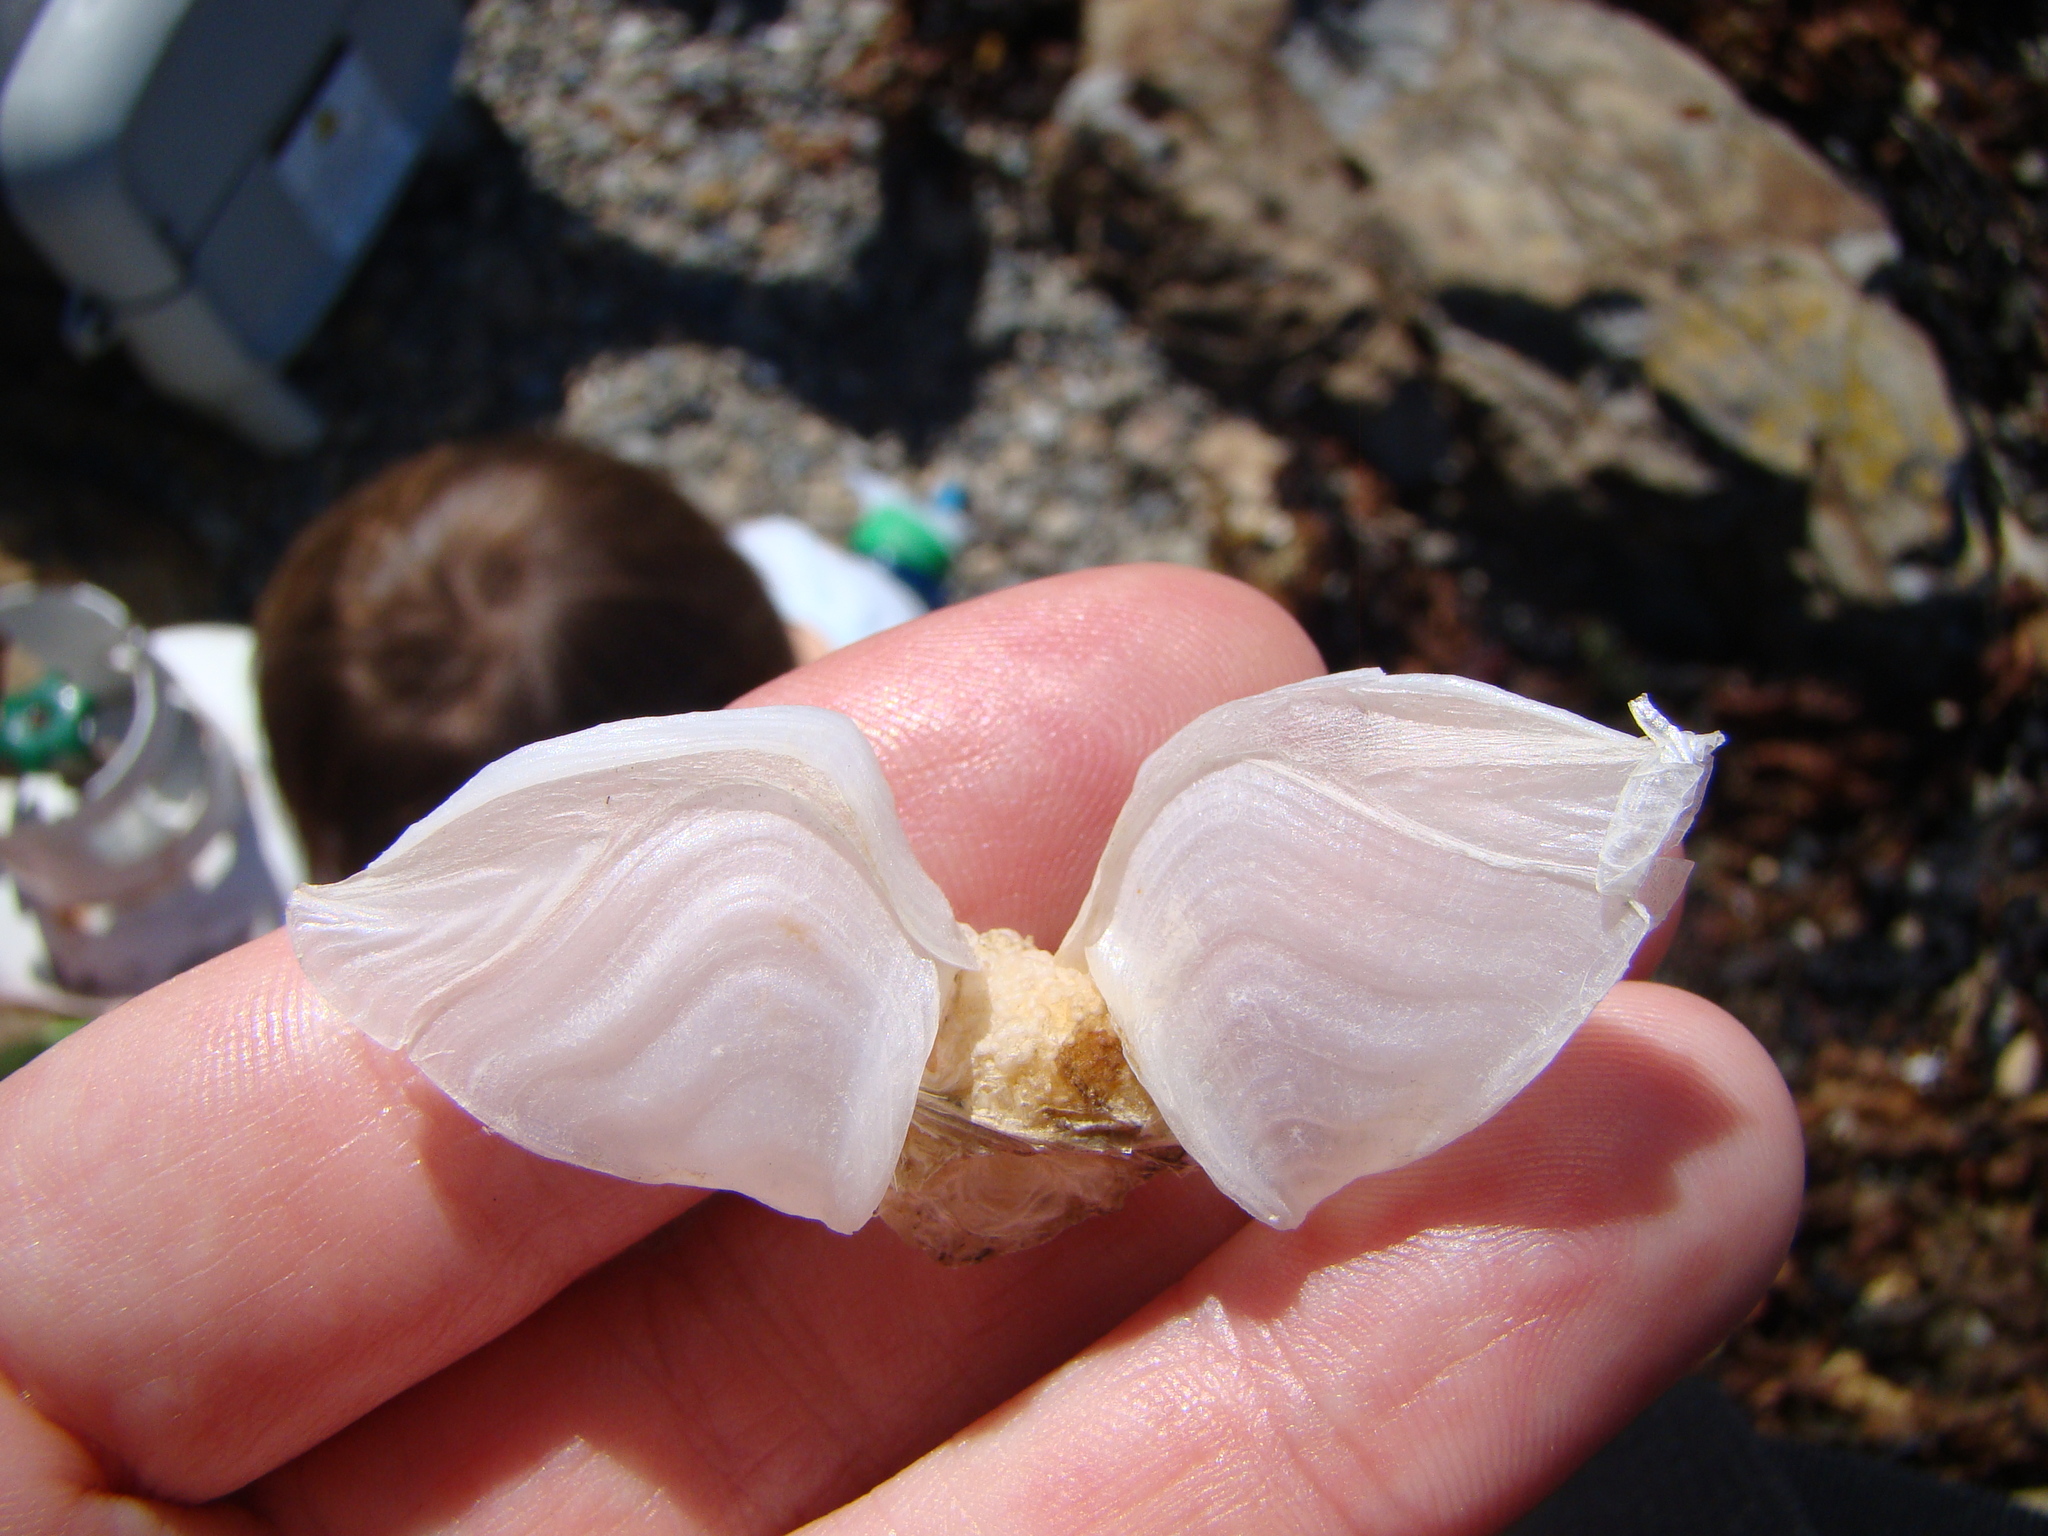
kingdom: Animalia
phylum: Arthropoda
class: Maxillopoda
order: Pedunculata
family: Lepadidae
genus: Dosima
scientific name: Dosima fascicularis
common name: Buoy barnacle
